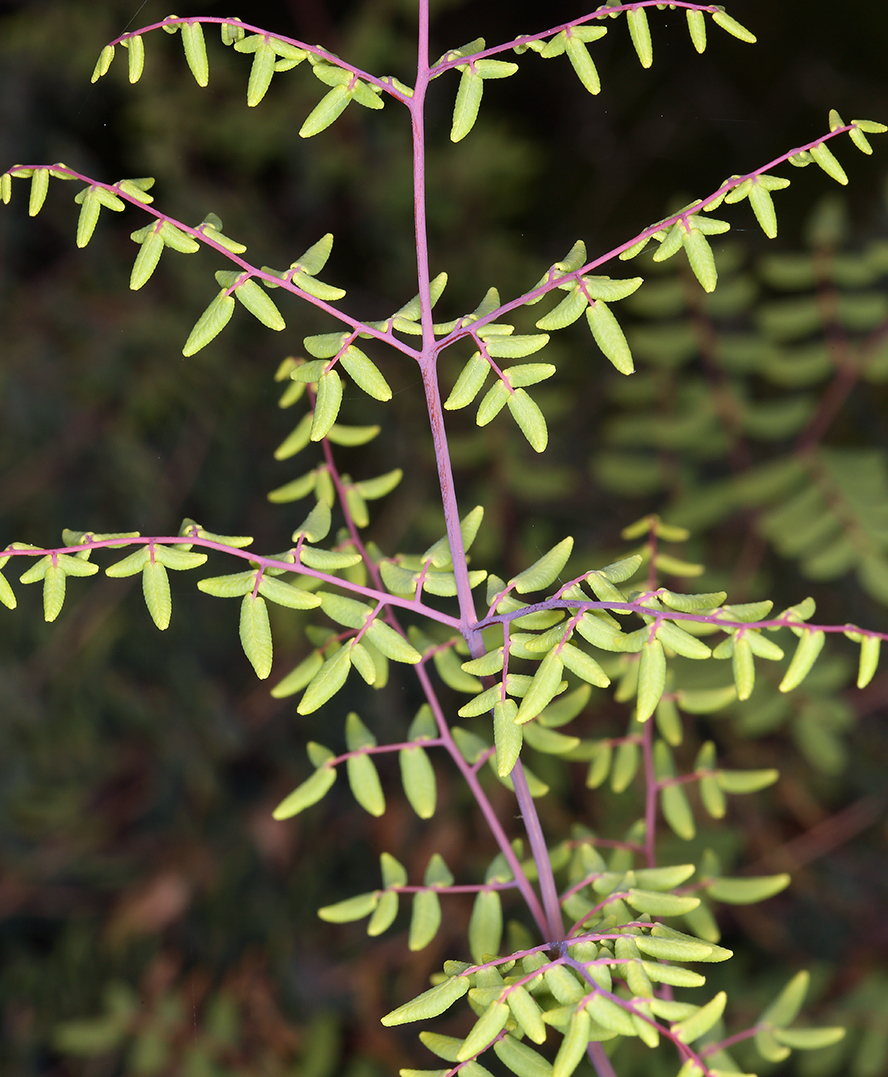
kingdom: Plantae
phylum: Tracheophyta
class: Polypodiopsida
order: Polypodiales
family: Pteridaceae
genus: Pellaea
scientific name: Pellaea andromedifolia
